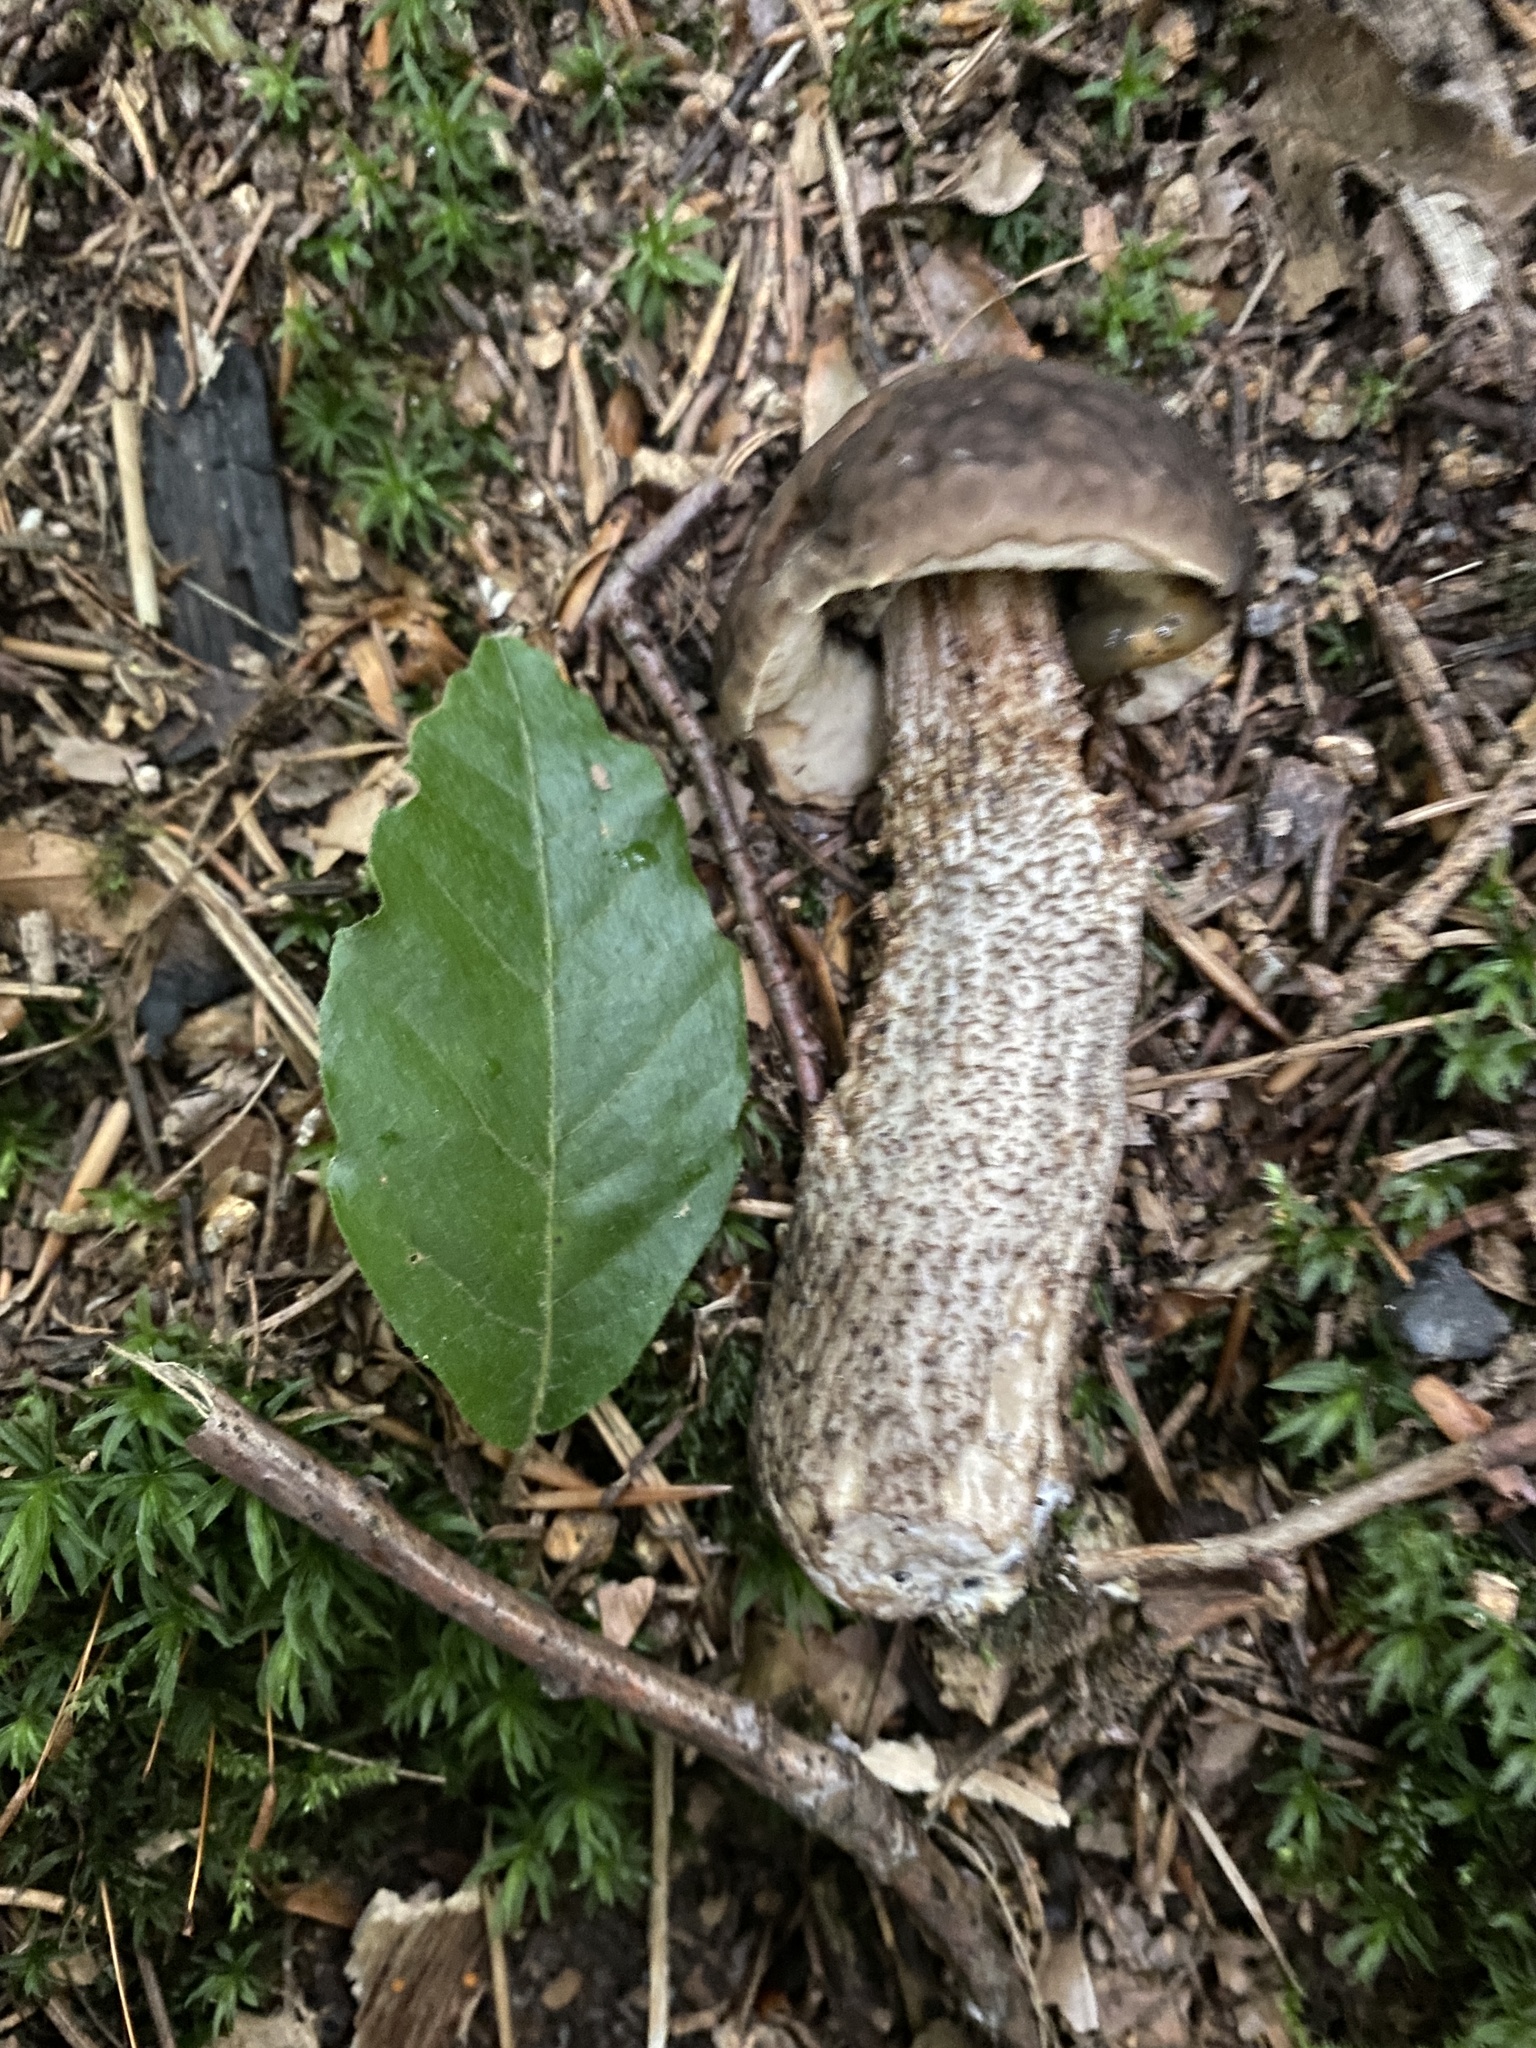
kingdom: Fungi
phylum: Basidiomycota
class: Agaricomycetes
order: Boletales
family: Boletaceae
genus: Leccinellum
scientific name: Leccinellum pseudoscabrum
